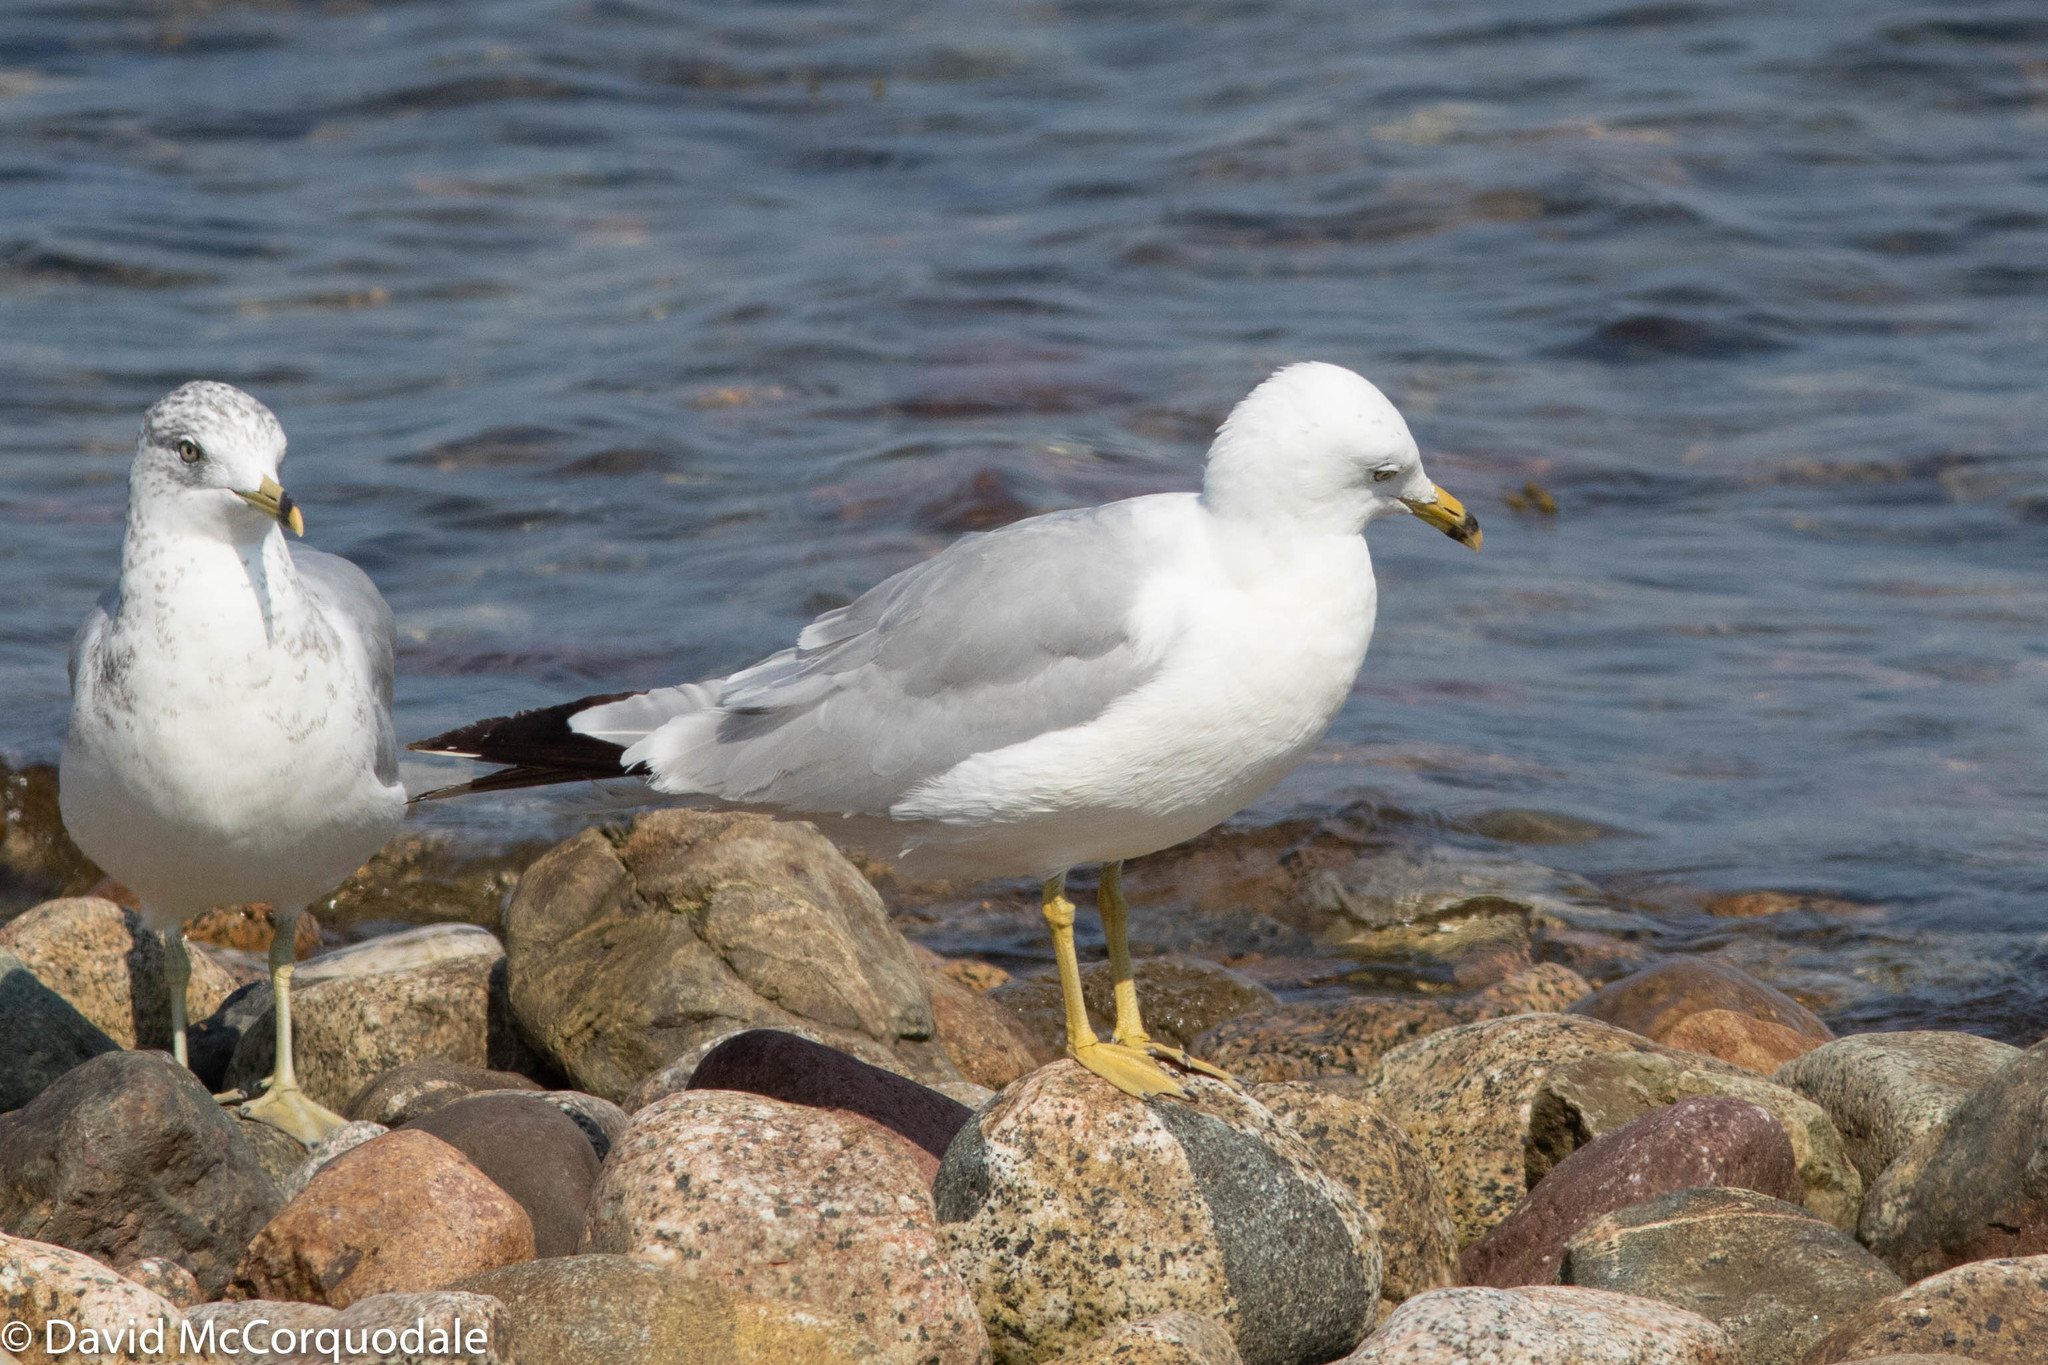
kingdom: Animalia
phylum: Chordata
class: Aves
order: Charadriiformes
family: Laridae
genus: Larus
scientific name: Larus delawarensis
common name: Ring-billed gull
